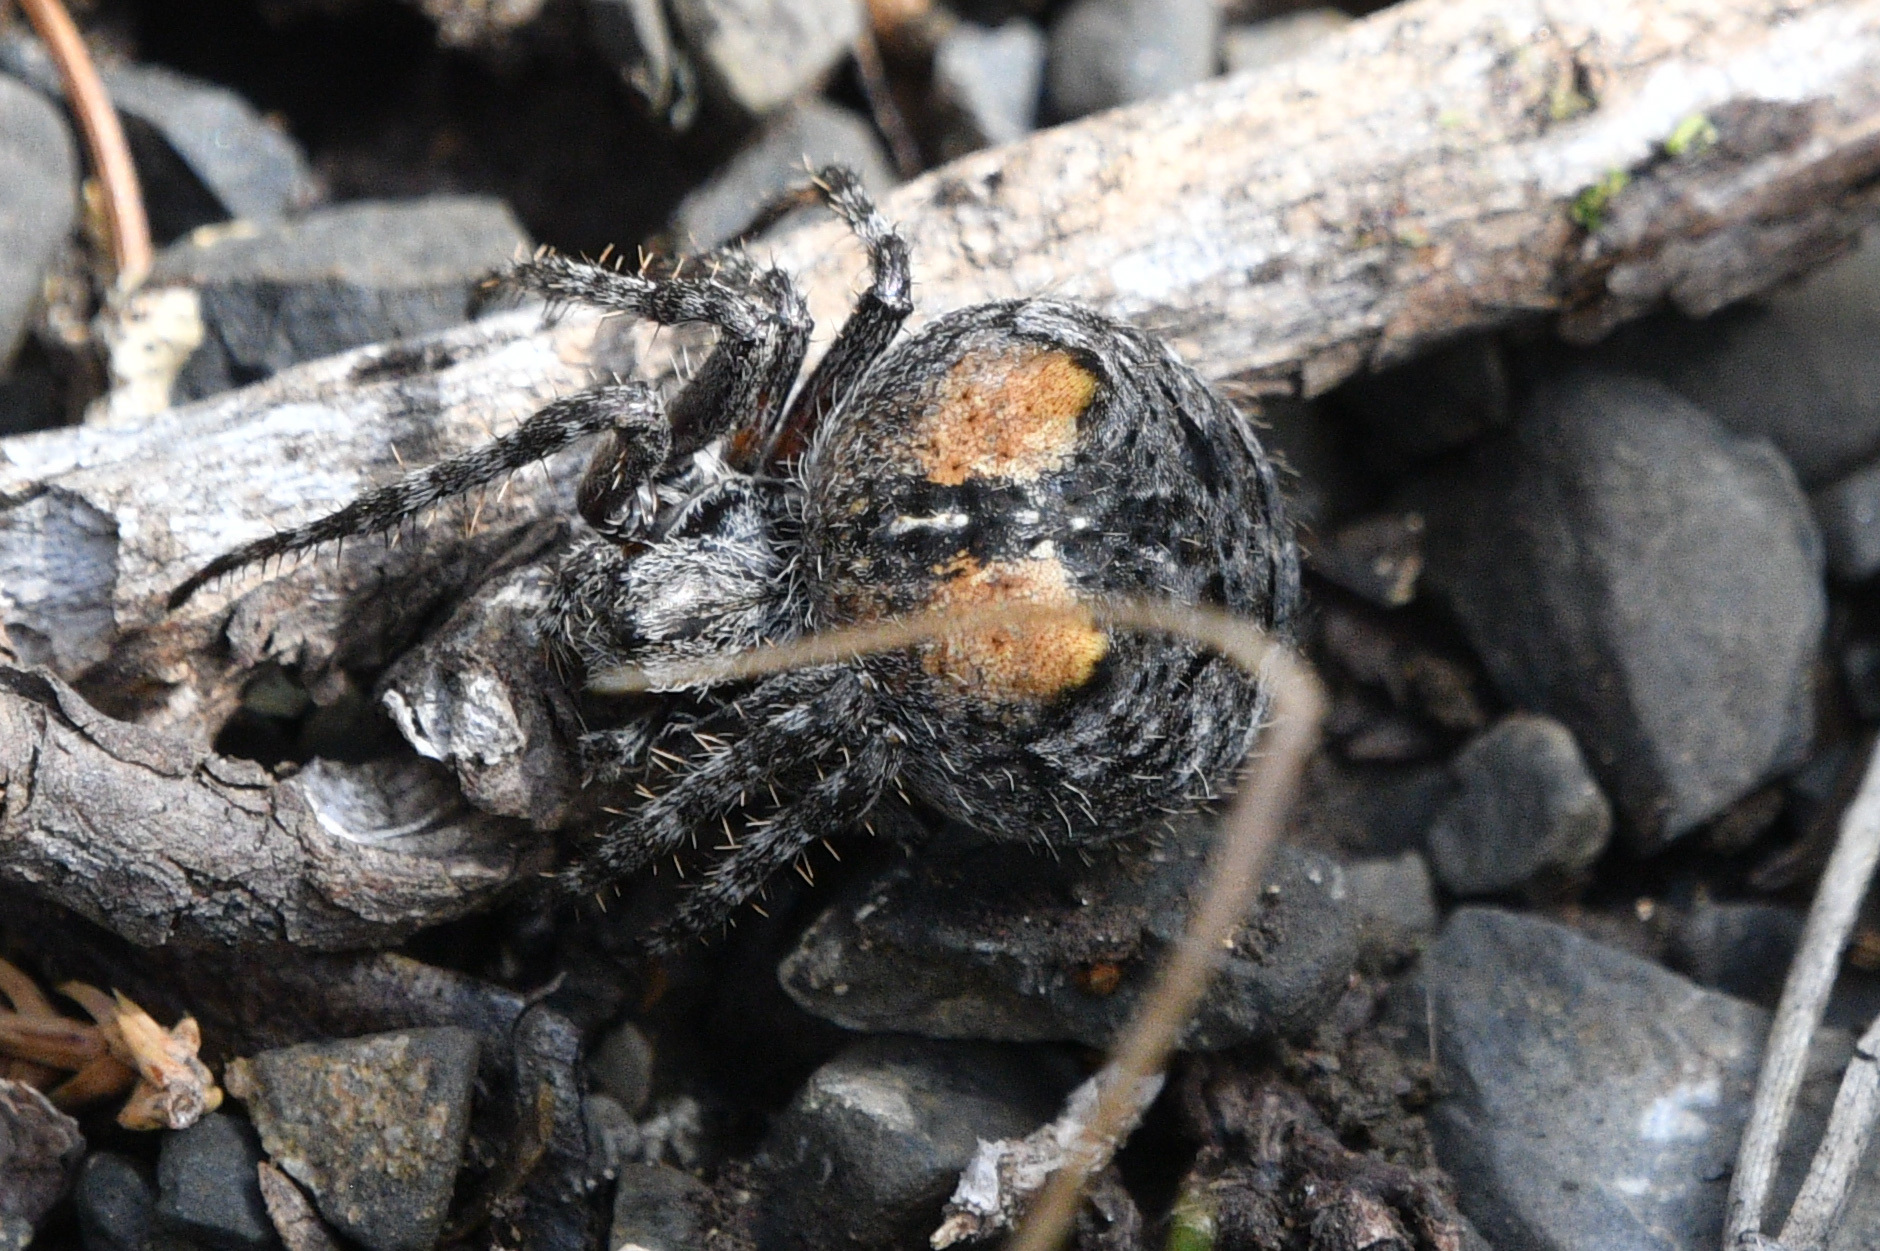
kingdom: Animalia
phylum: Arthropoda
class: Arachnida
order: Araneae
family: Araneidae
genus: Araneus
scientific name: Araneus saevus
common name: Fierce orbweaver
